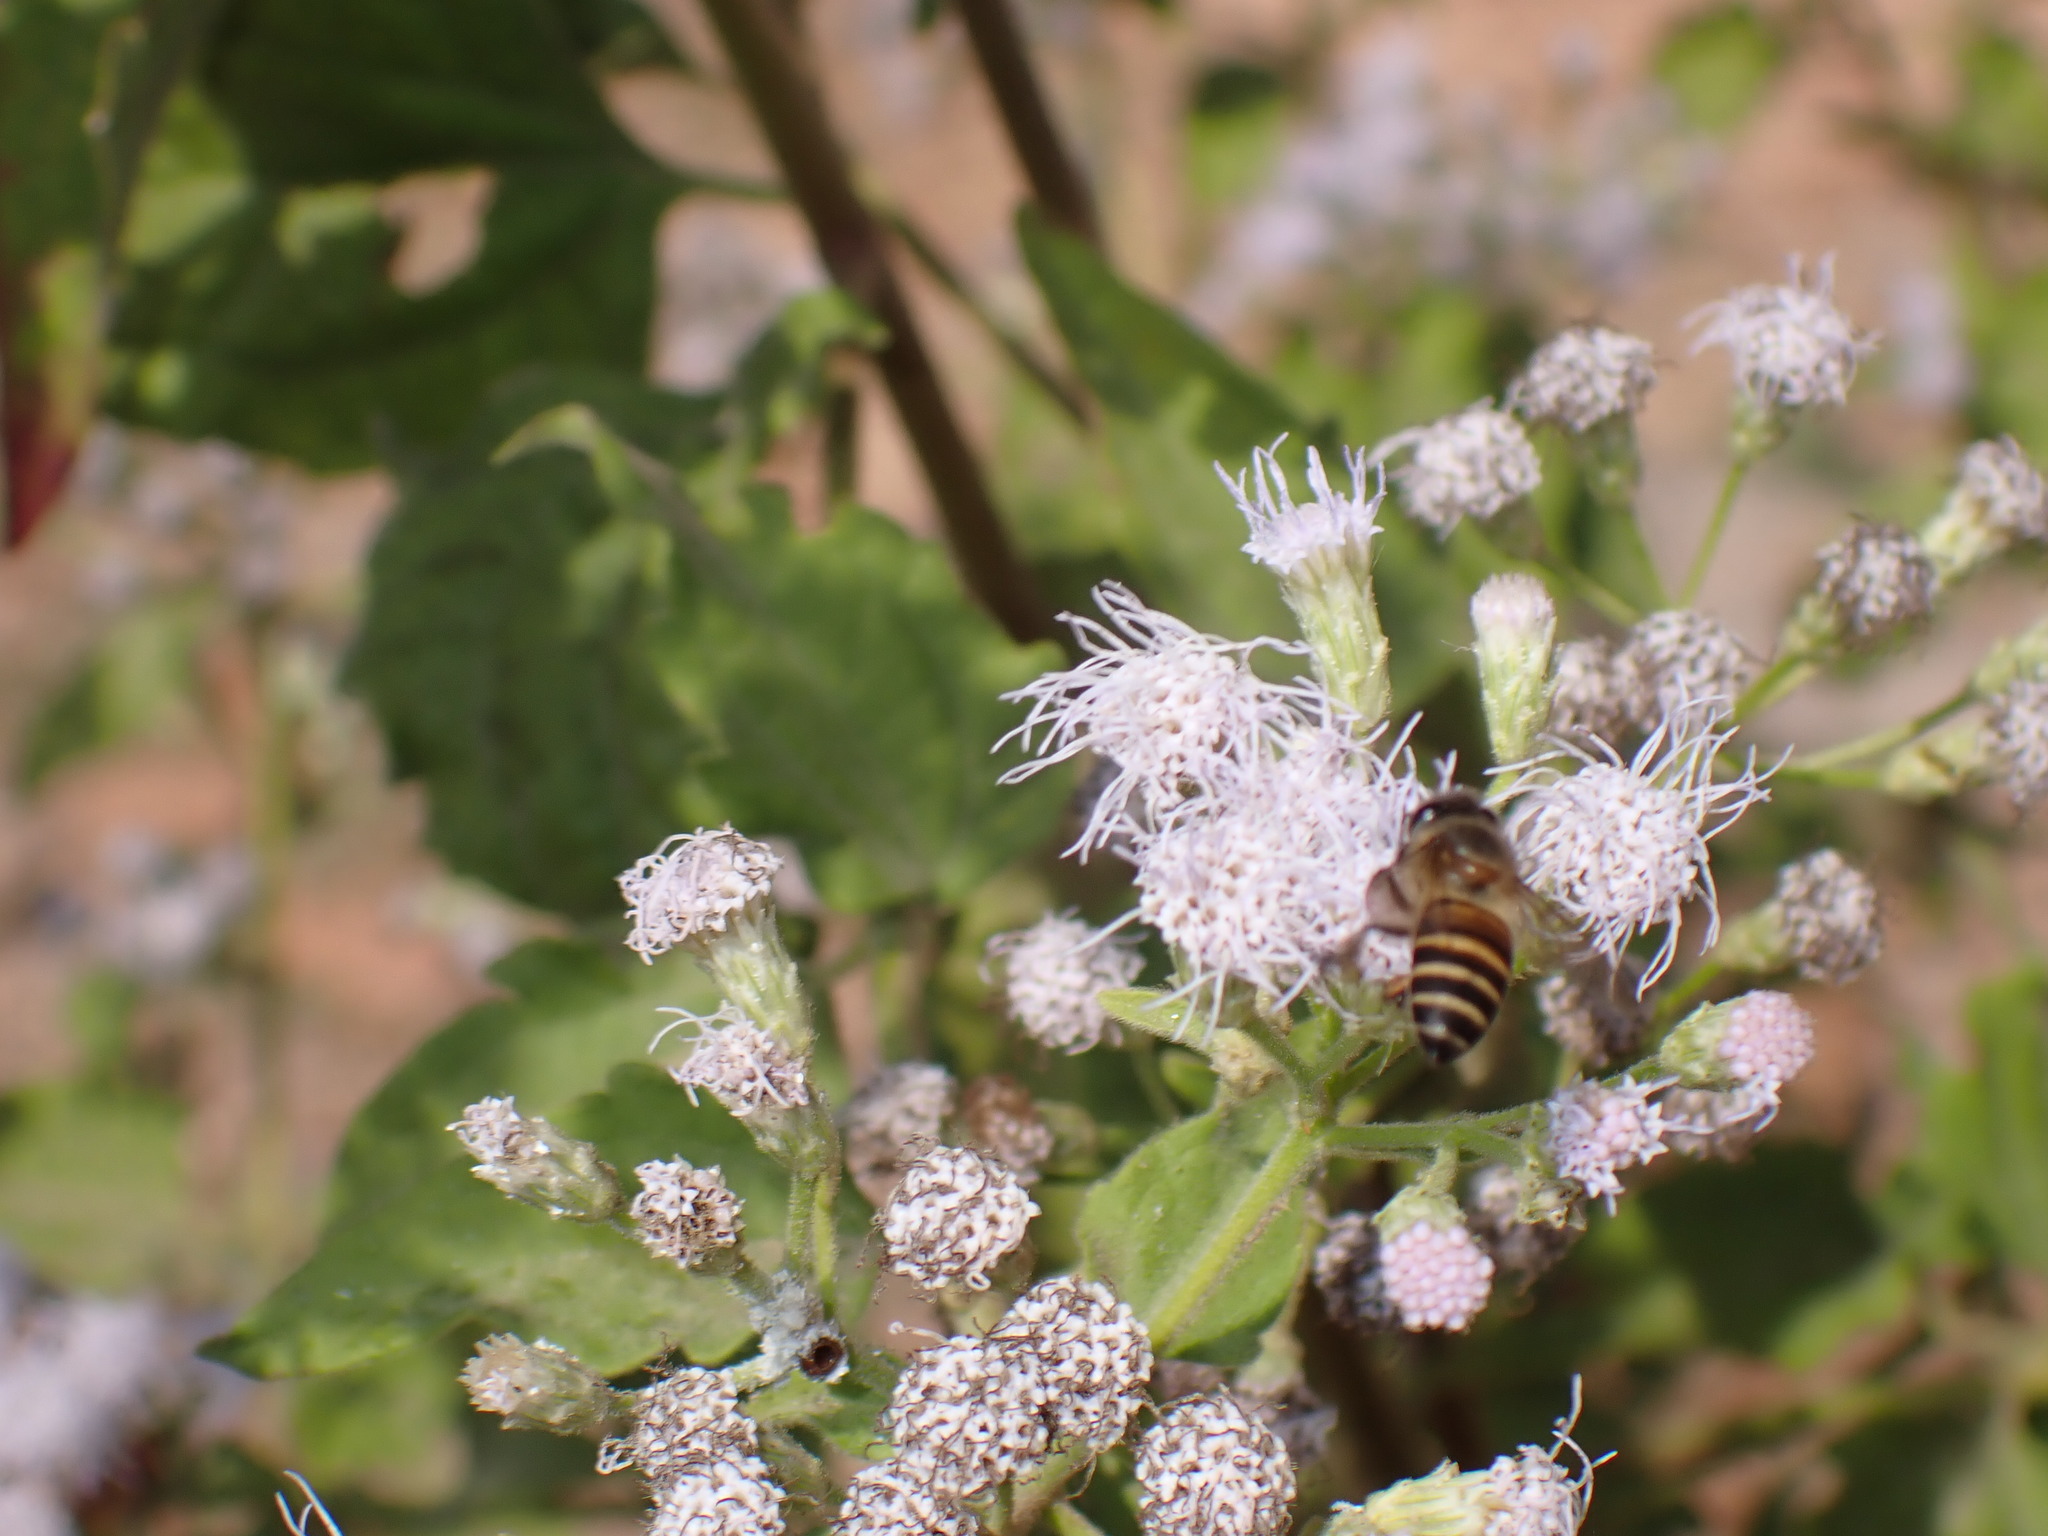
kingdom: Animalia
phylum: Arthropoda
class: Insecta
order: Hymenoptera
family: Apidae
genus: Apis
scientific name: Apis cerana
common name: Honey bee
